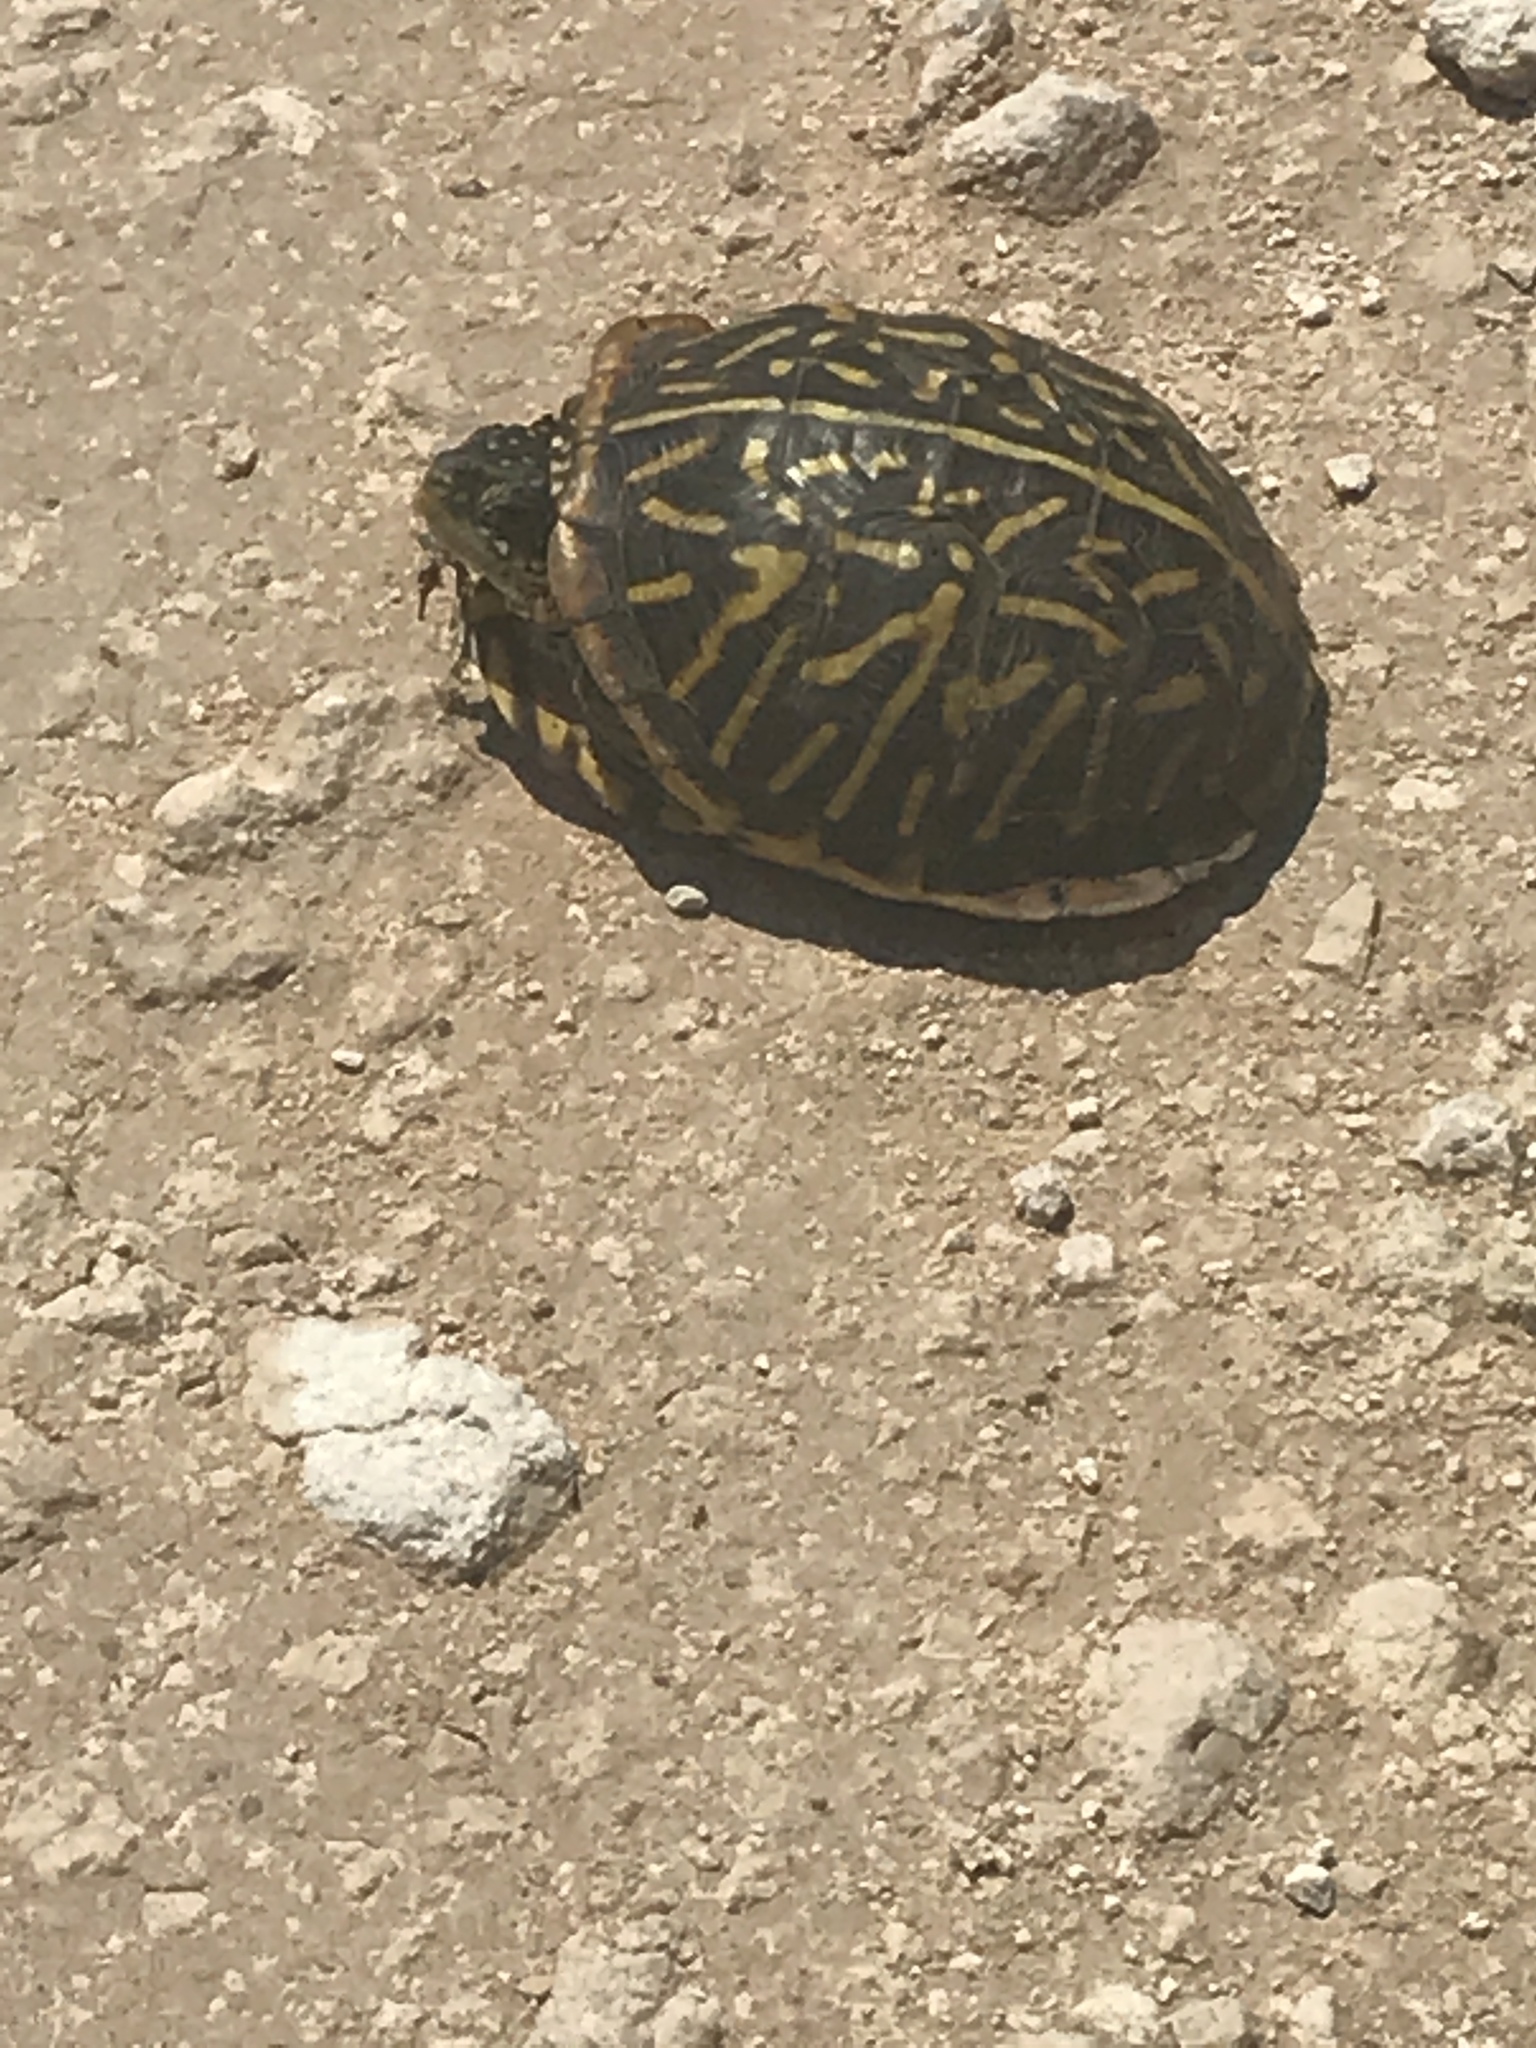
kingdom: Animalia
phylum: Chordata
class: Testudines
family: Emydidae
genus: Terrapene
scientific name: Terrapene ornata
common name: Western box turtle
